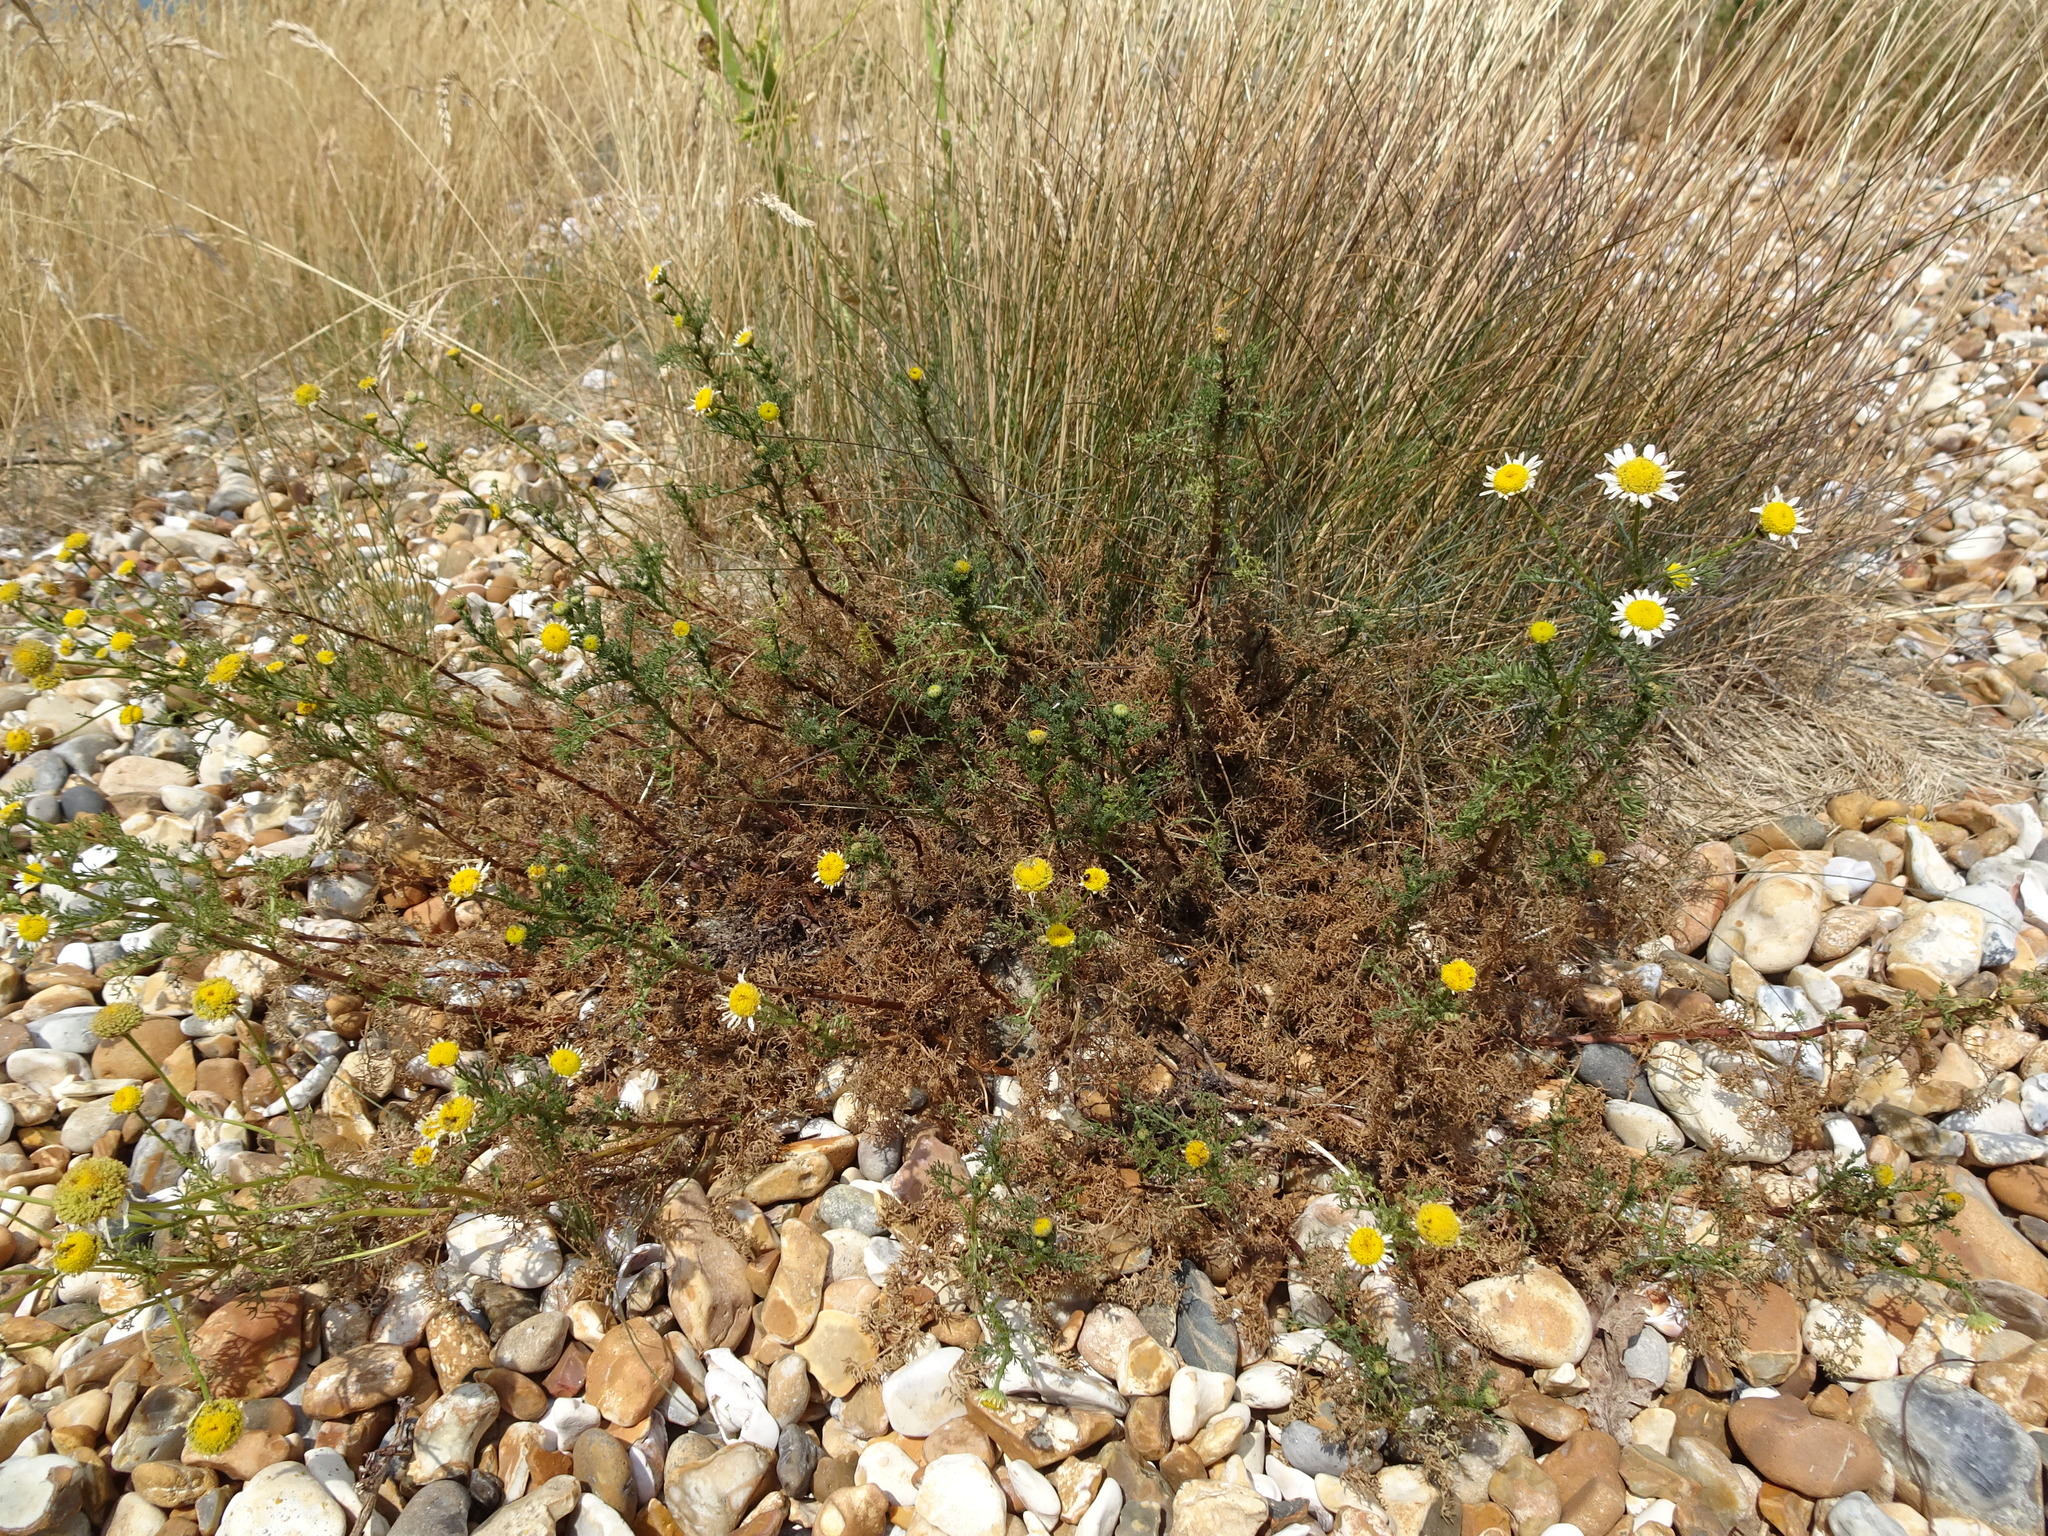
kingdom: Plantae
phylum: Tracheophyta
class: Magnoliopsida
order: Asterales
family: Asteraceae
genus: Tripleurospermum
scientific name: Tripleurospermum maritimum
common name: Sea mayweed
